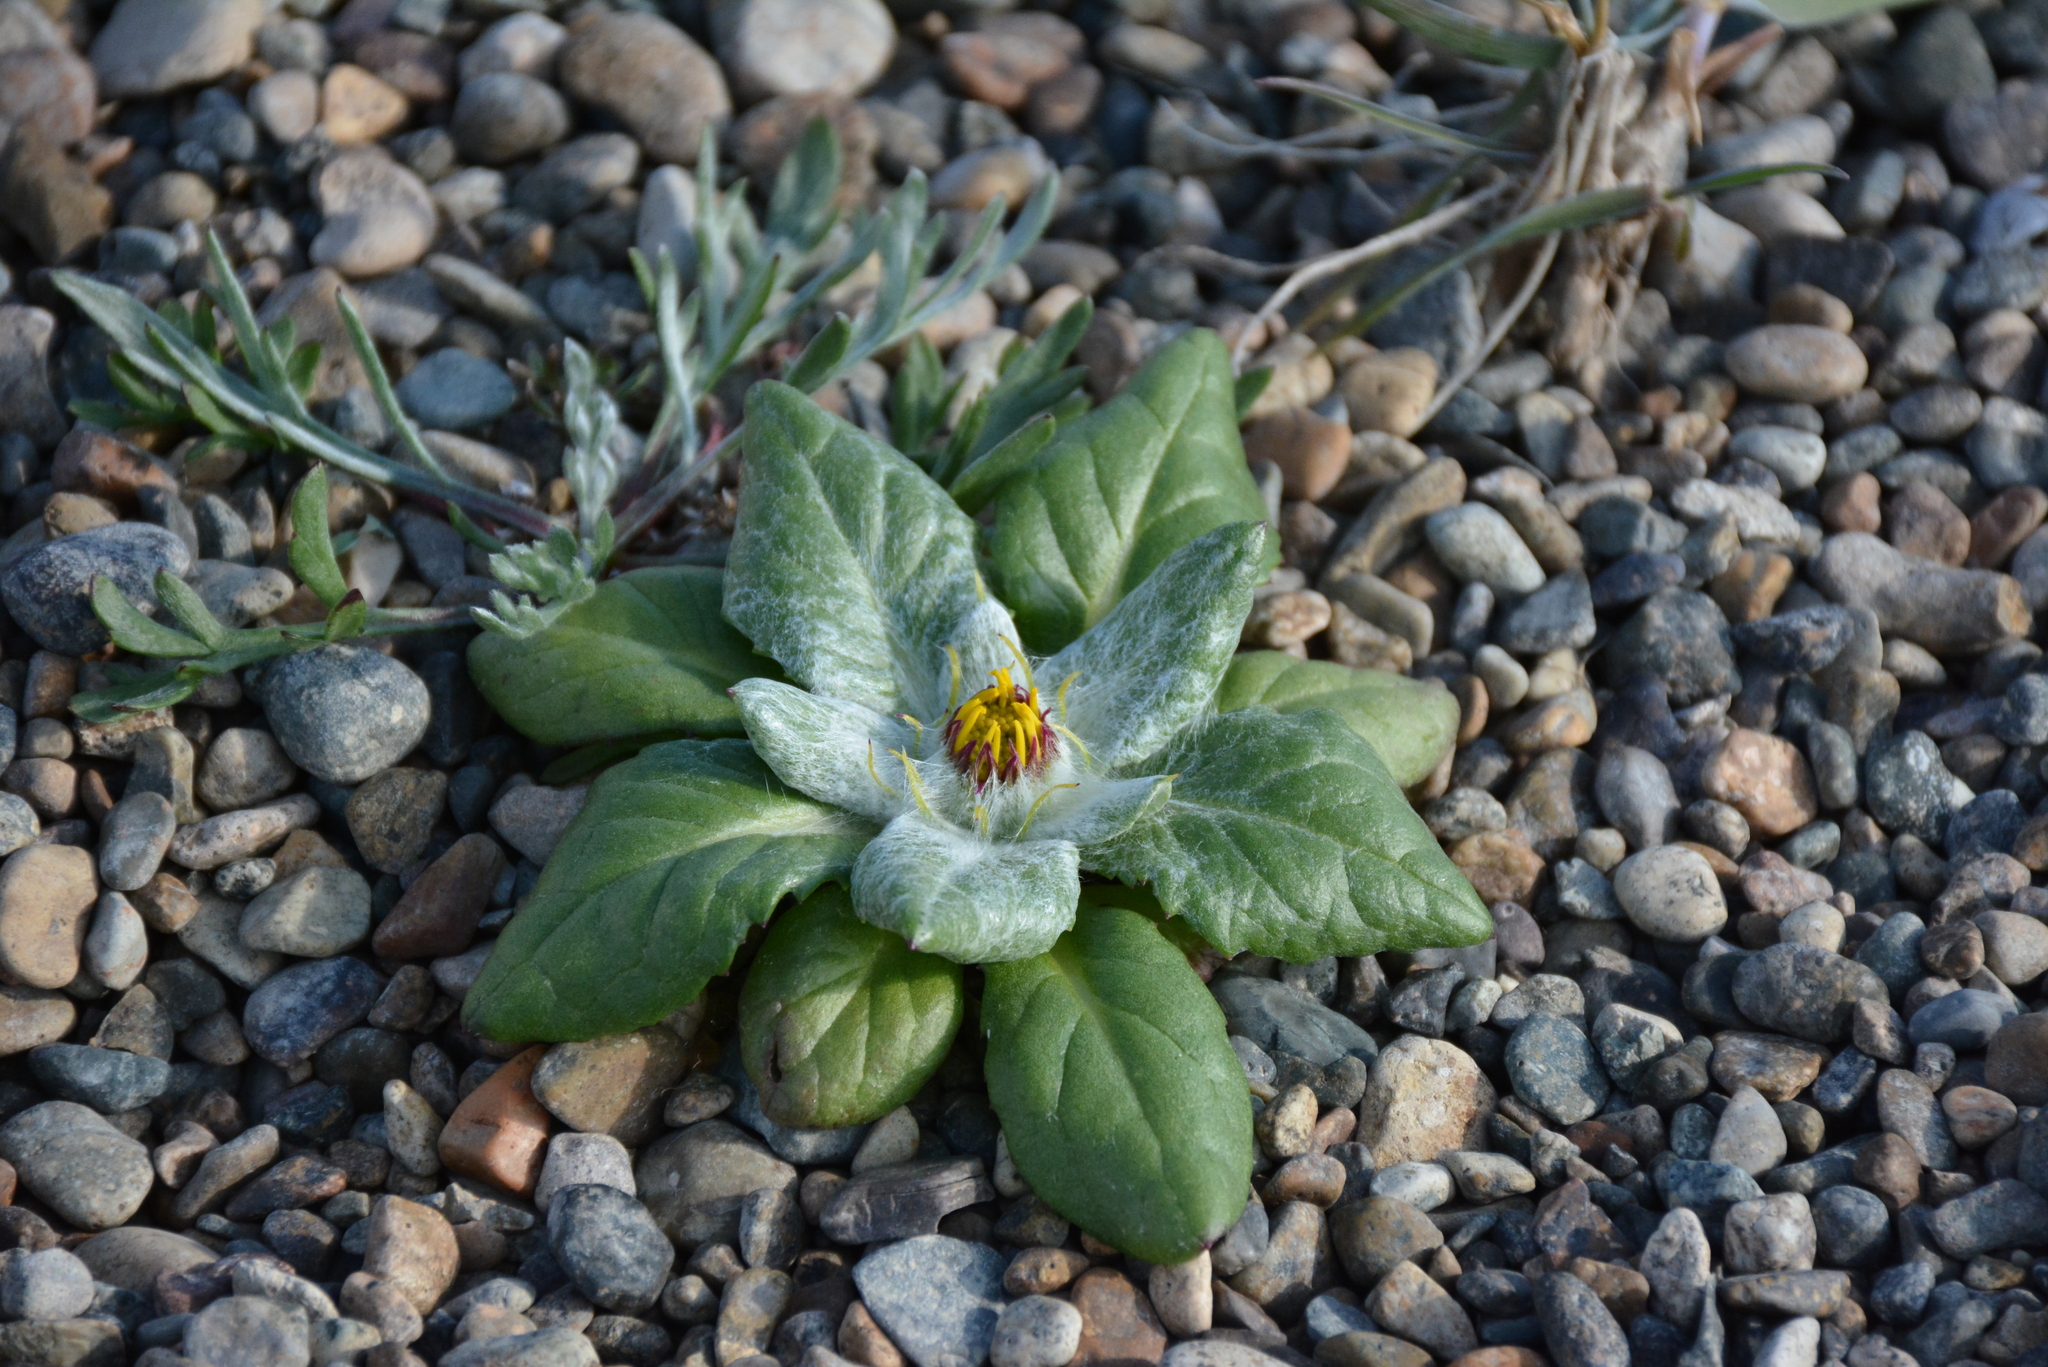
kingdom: Plantae
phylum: Tracheophyta
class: Magnoliopsida
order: Asterales
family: Asteraceae
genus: Jacobaea
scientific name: Jacobaea pseudoarnica
